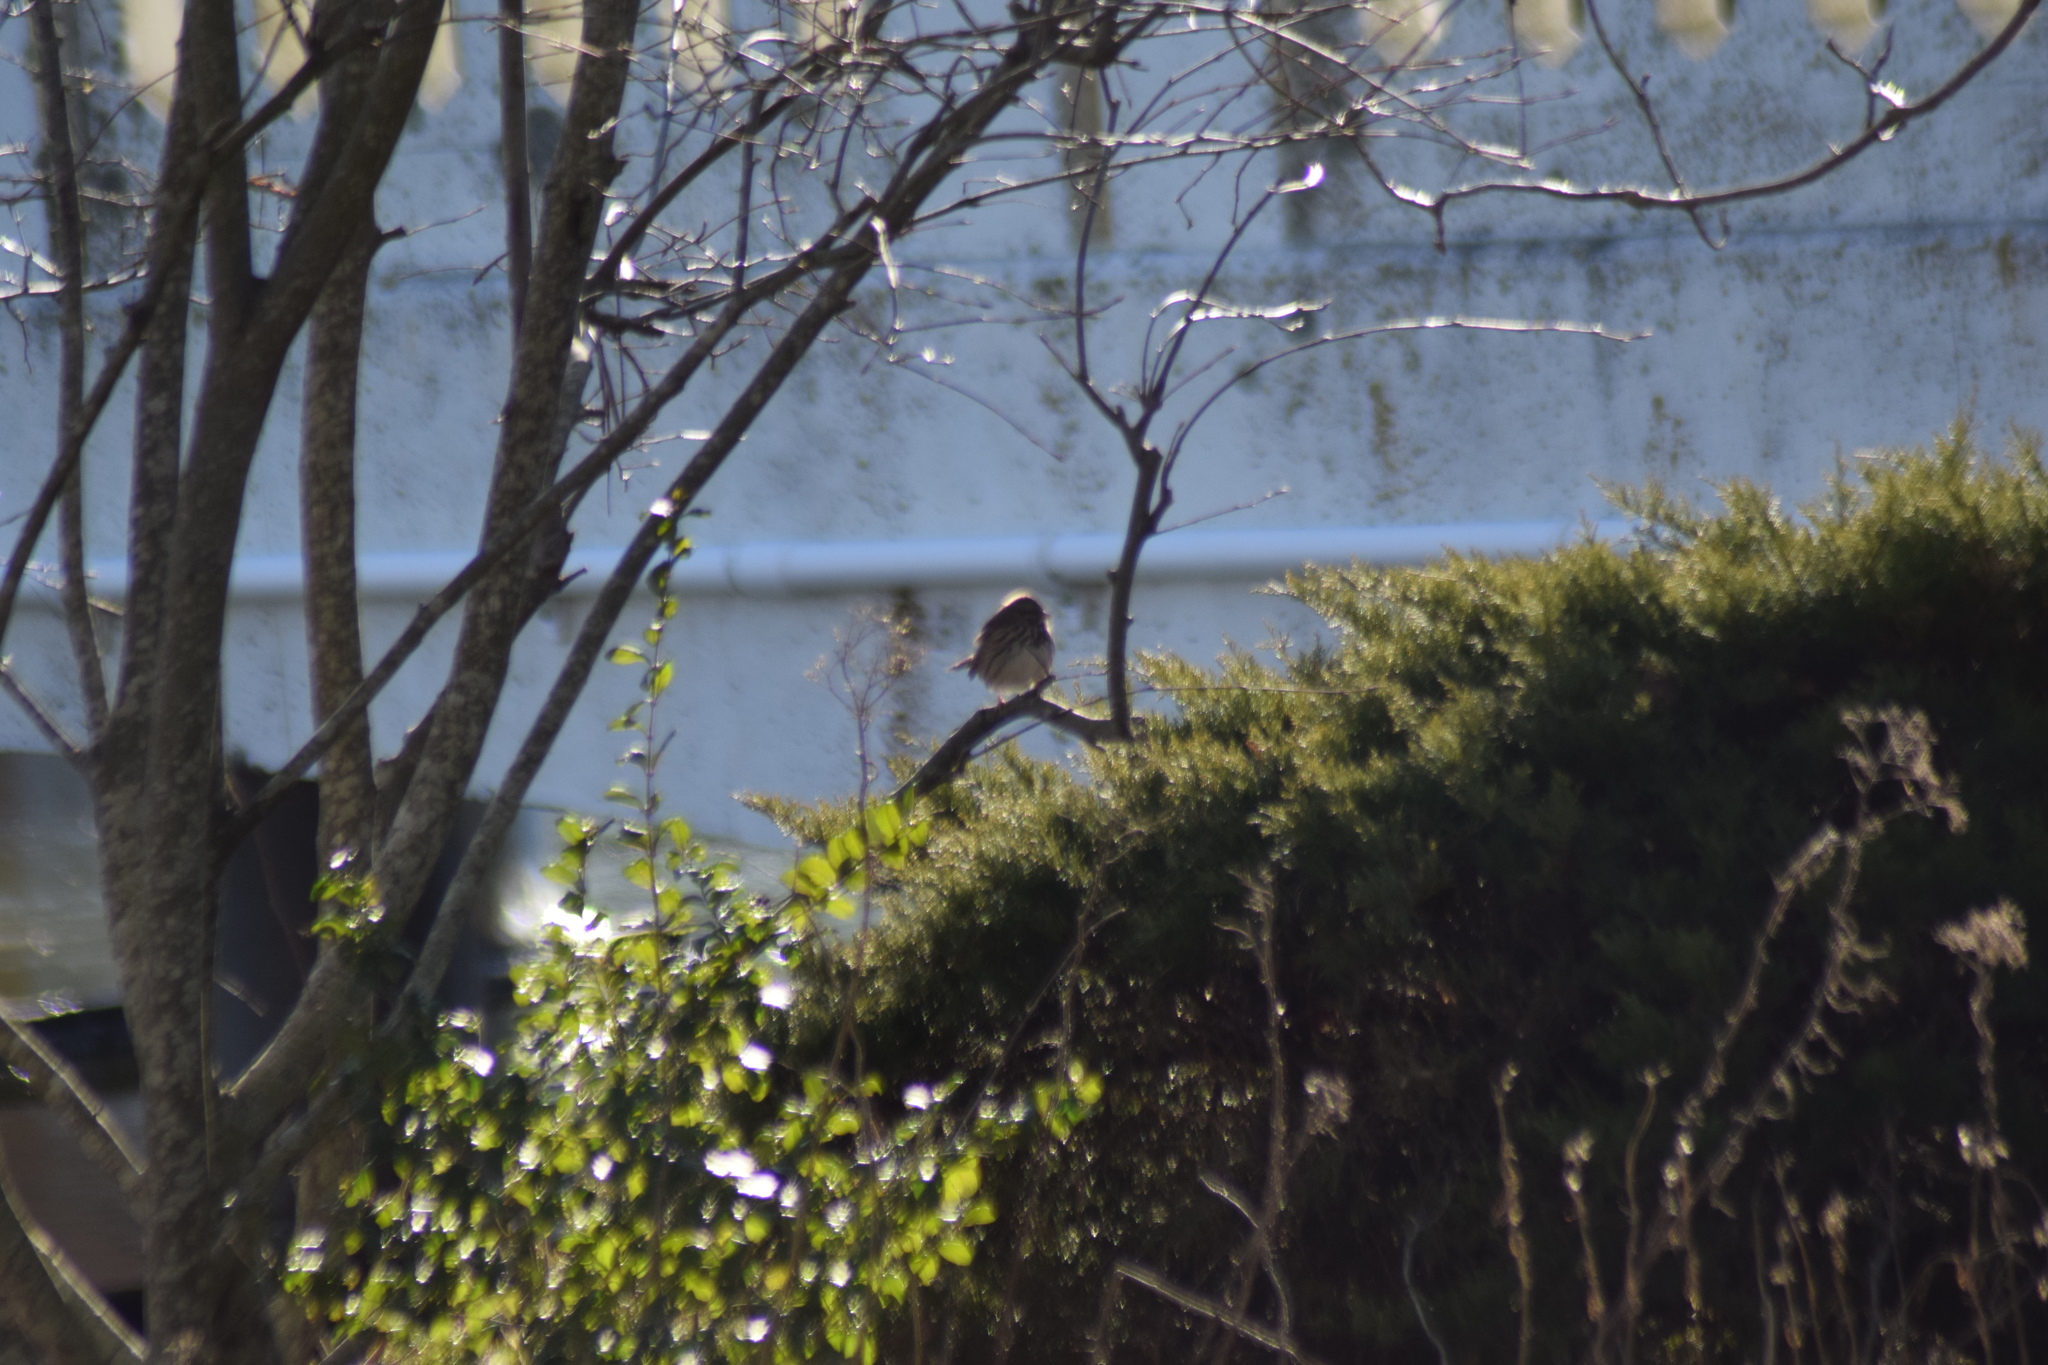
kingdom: Animalia
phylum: Chordata
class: Aves
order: Passeriformes
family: Passerellidae
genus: Melospiza
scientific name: Melospiza melodia
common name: Song sparrow
